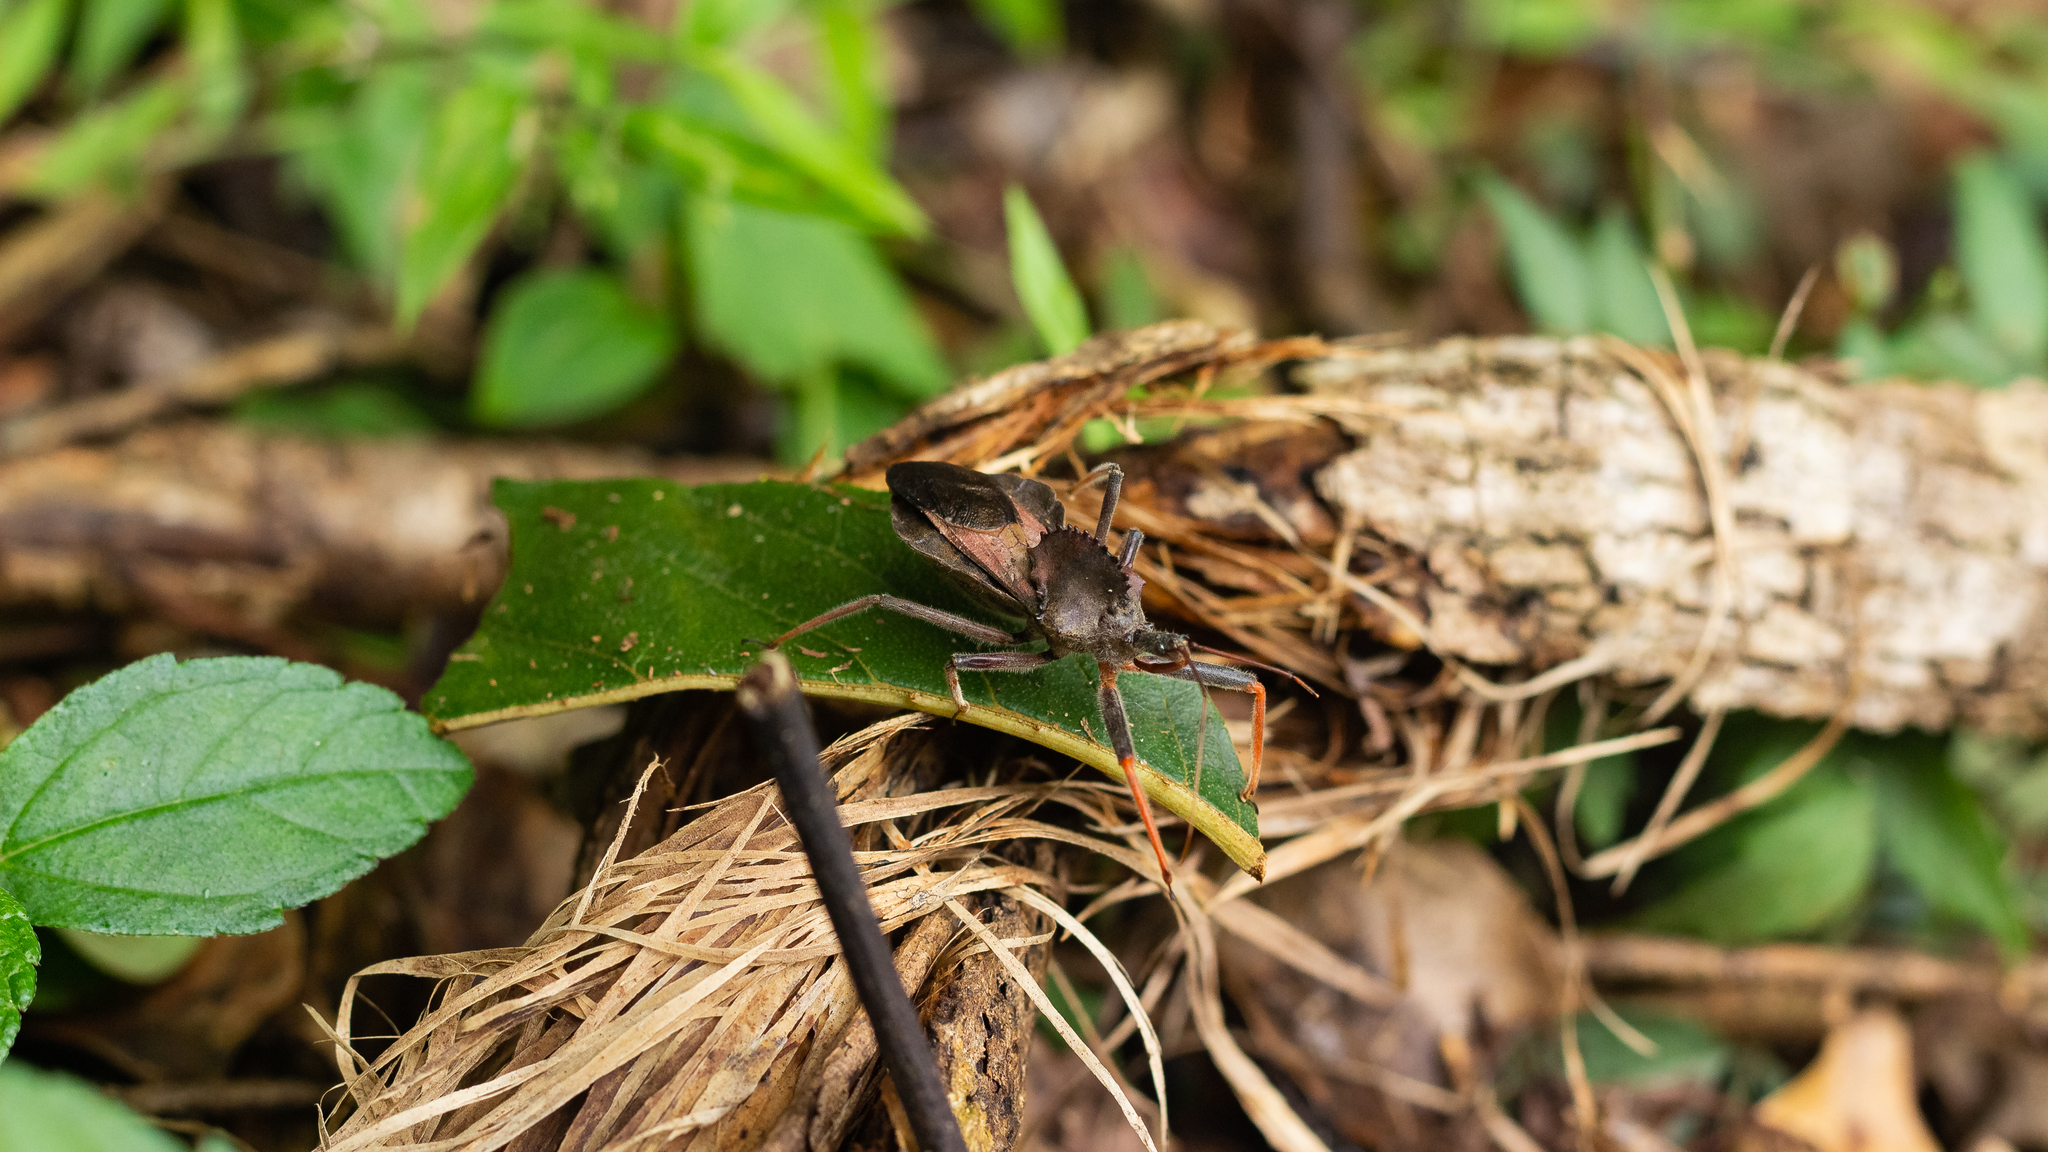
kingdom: Animalia
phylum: Arthropoda
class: Insecta
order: Hemiptera
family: Reduviidae
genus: Arilus
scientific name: Arilus carinatus
